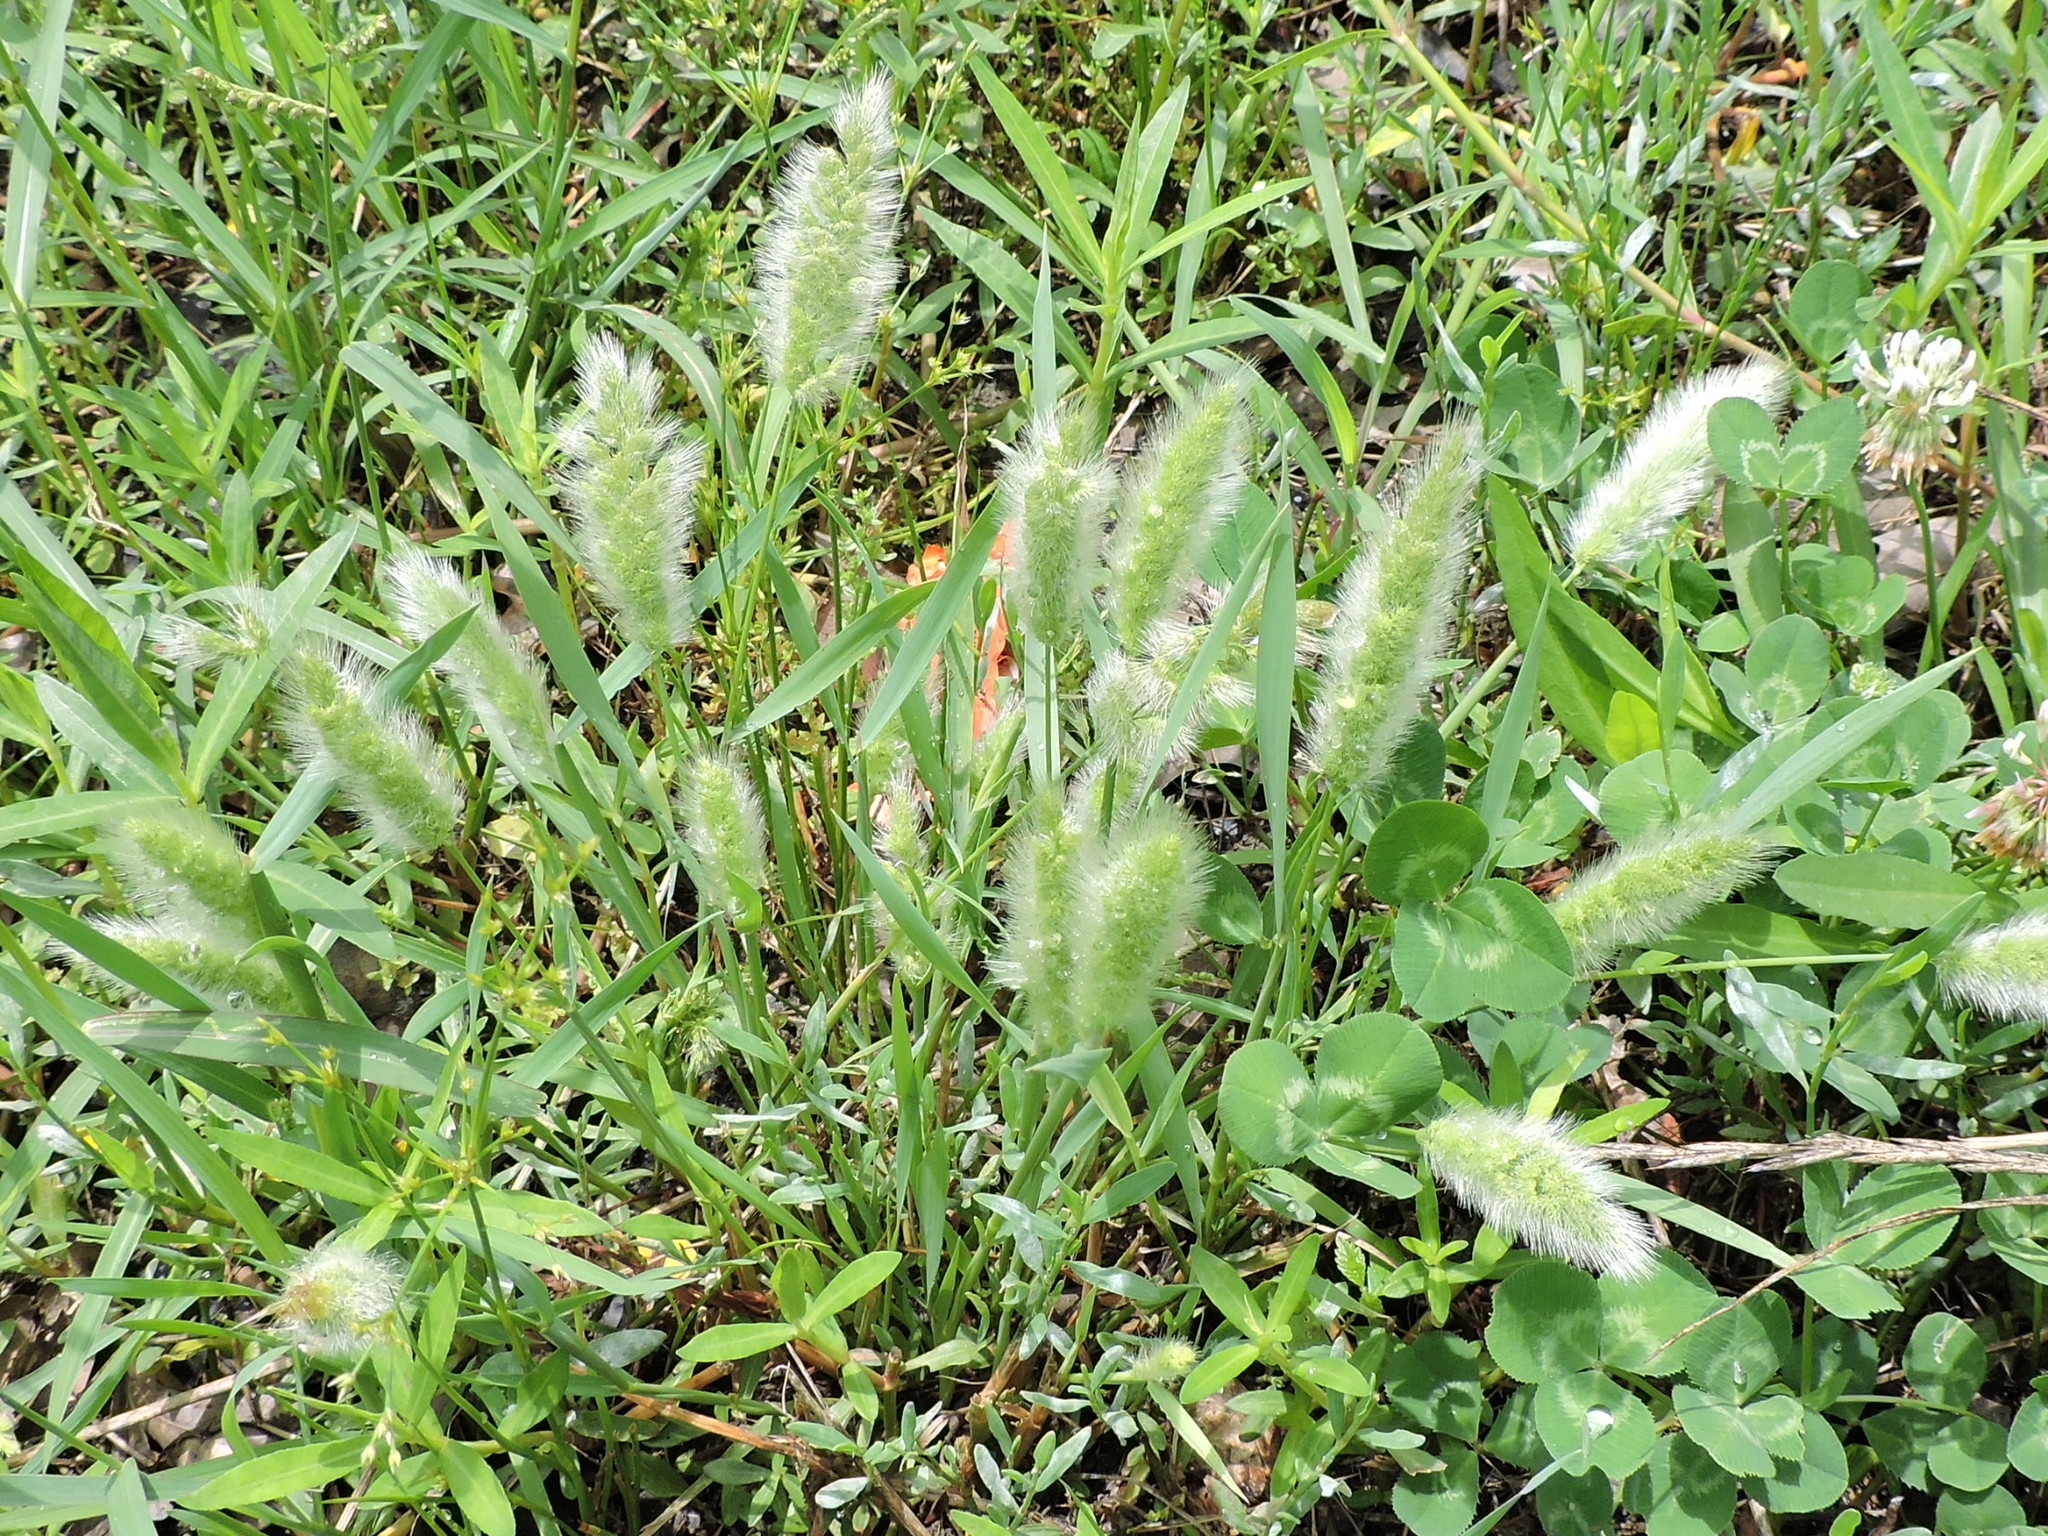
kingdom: Plantae
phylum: Tracheophyta
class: Liliopsida
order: Poales
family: Poaceae
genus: Polypogon
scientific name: Polypogon monspeliensis
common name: Annual rabbitsfoot grass
